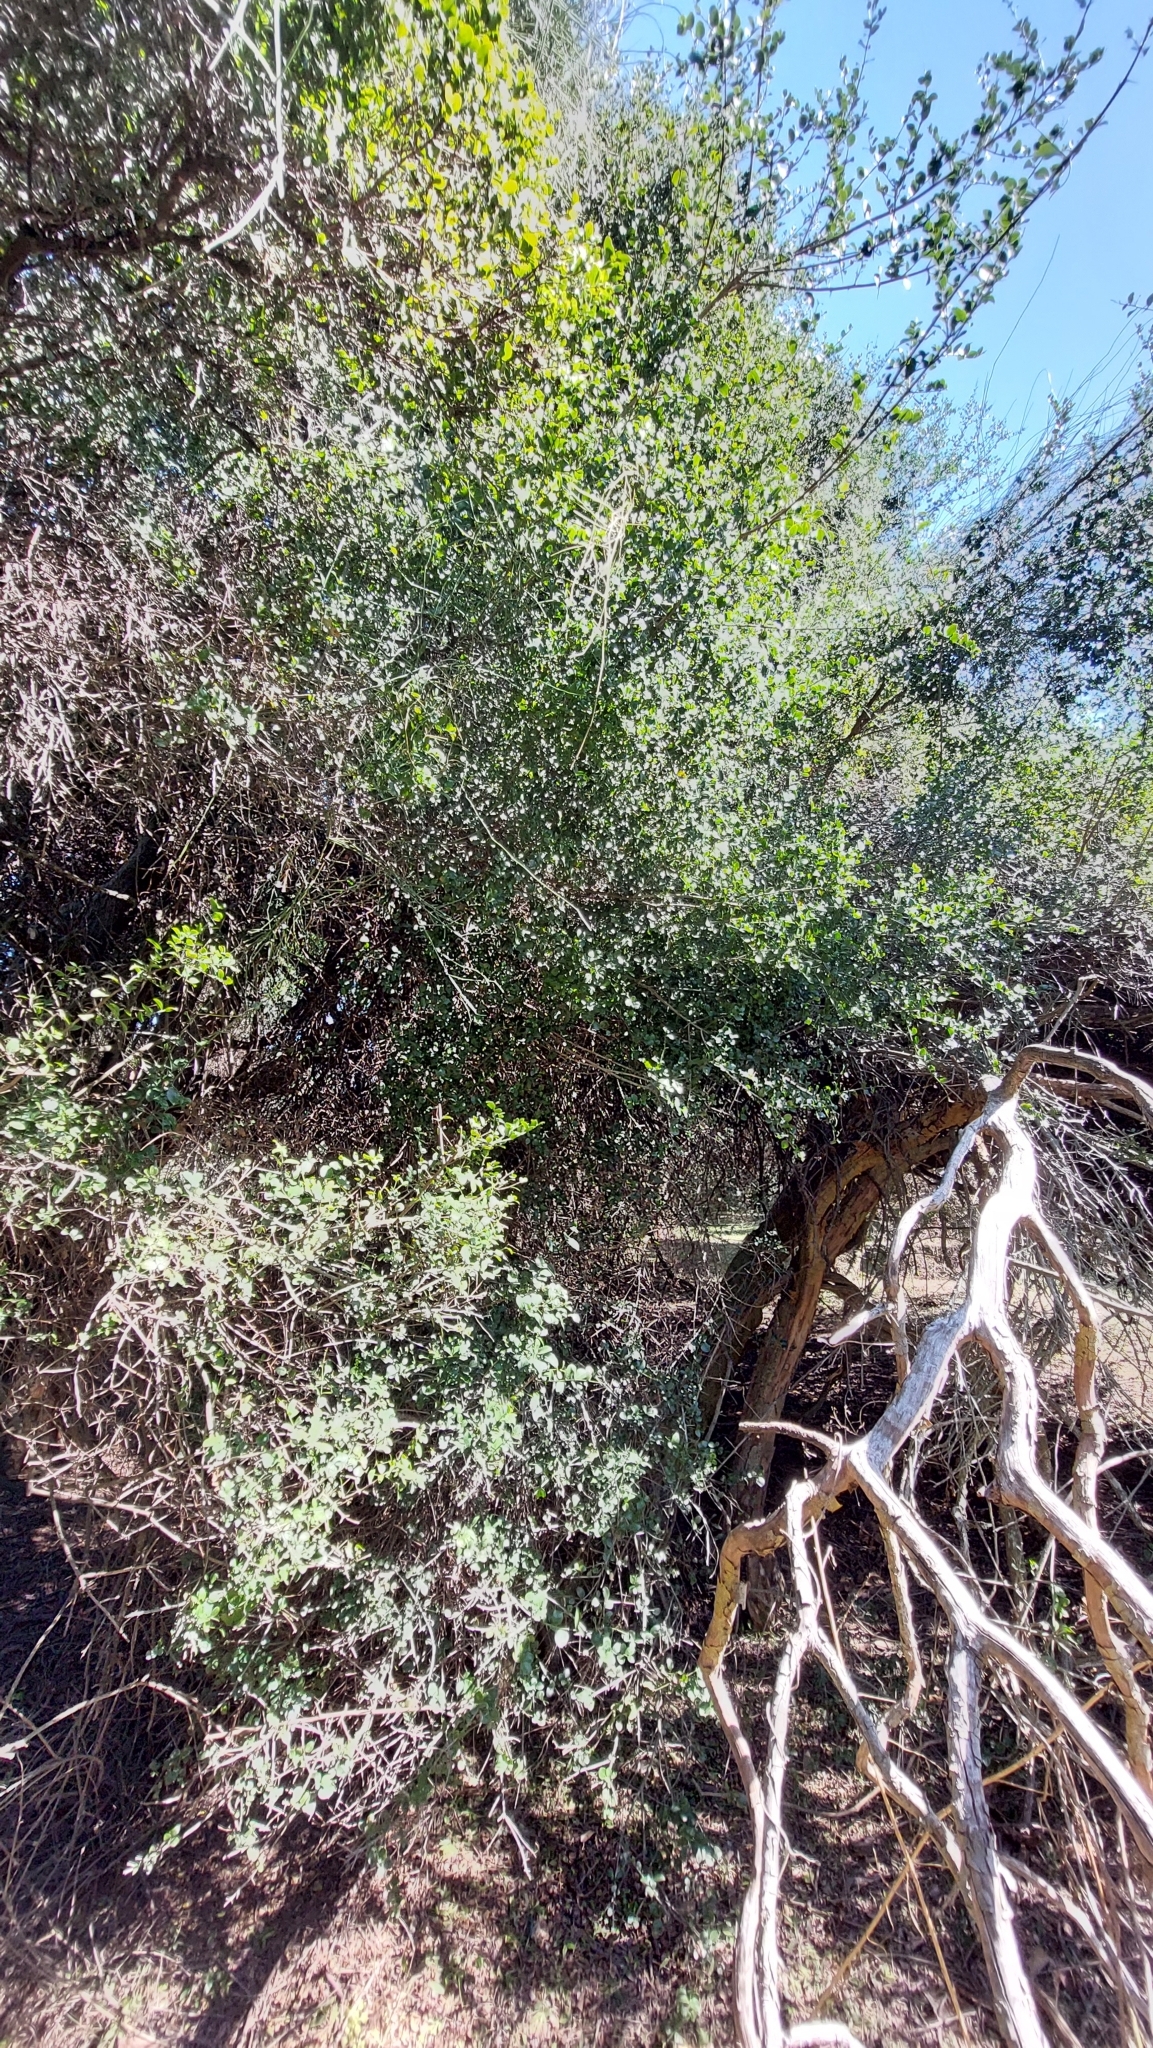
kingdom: Plantae
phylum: Tracheophyta
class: Magnoliopsida
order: Rosales
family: Rhamnaceae
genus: Scutia
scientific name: Scutia buxifolia
